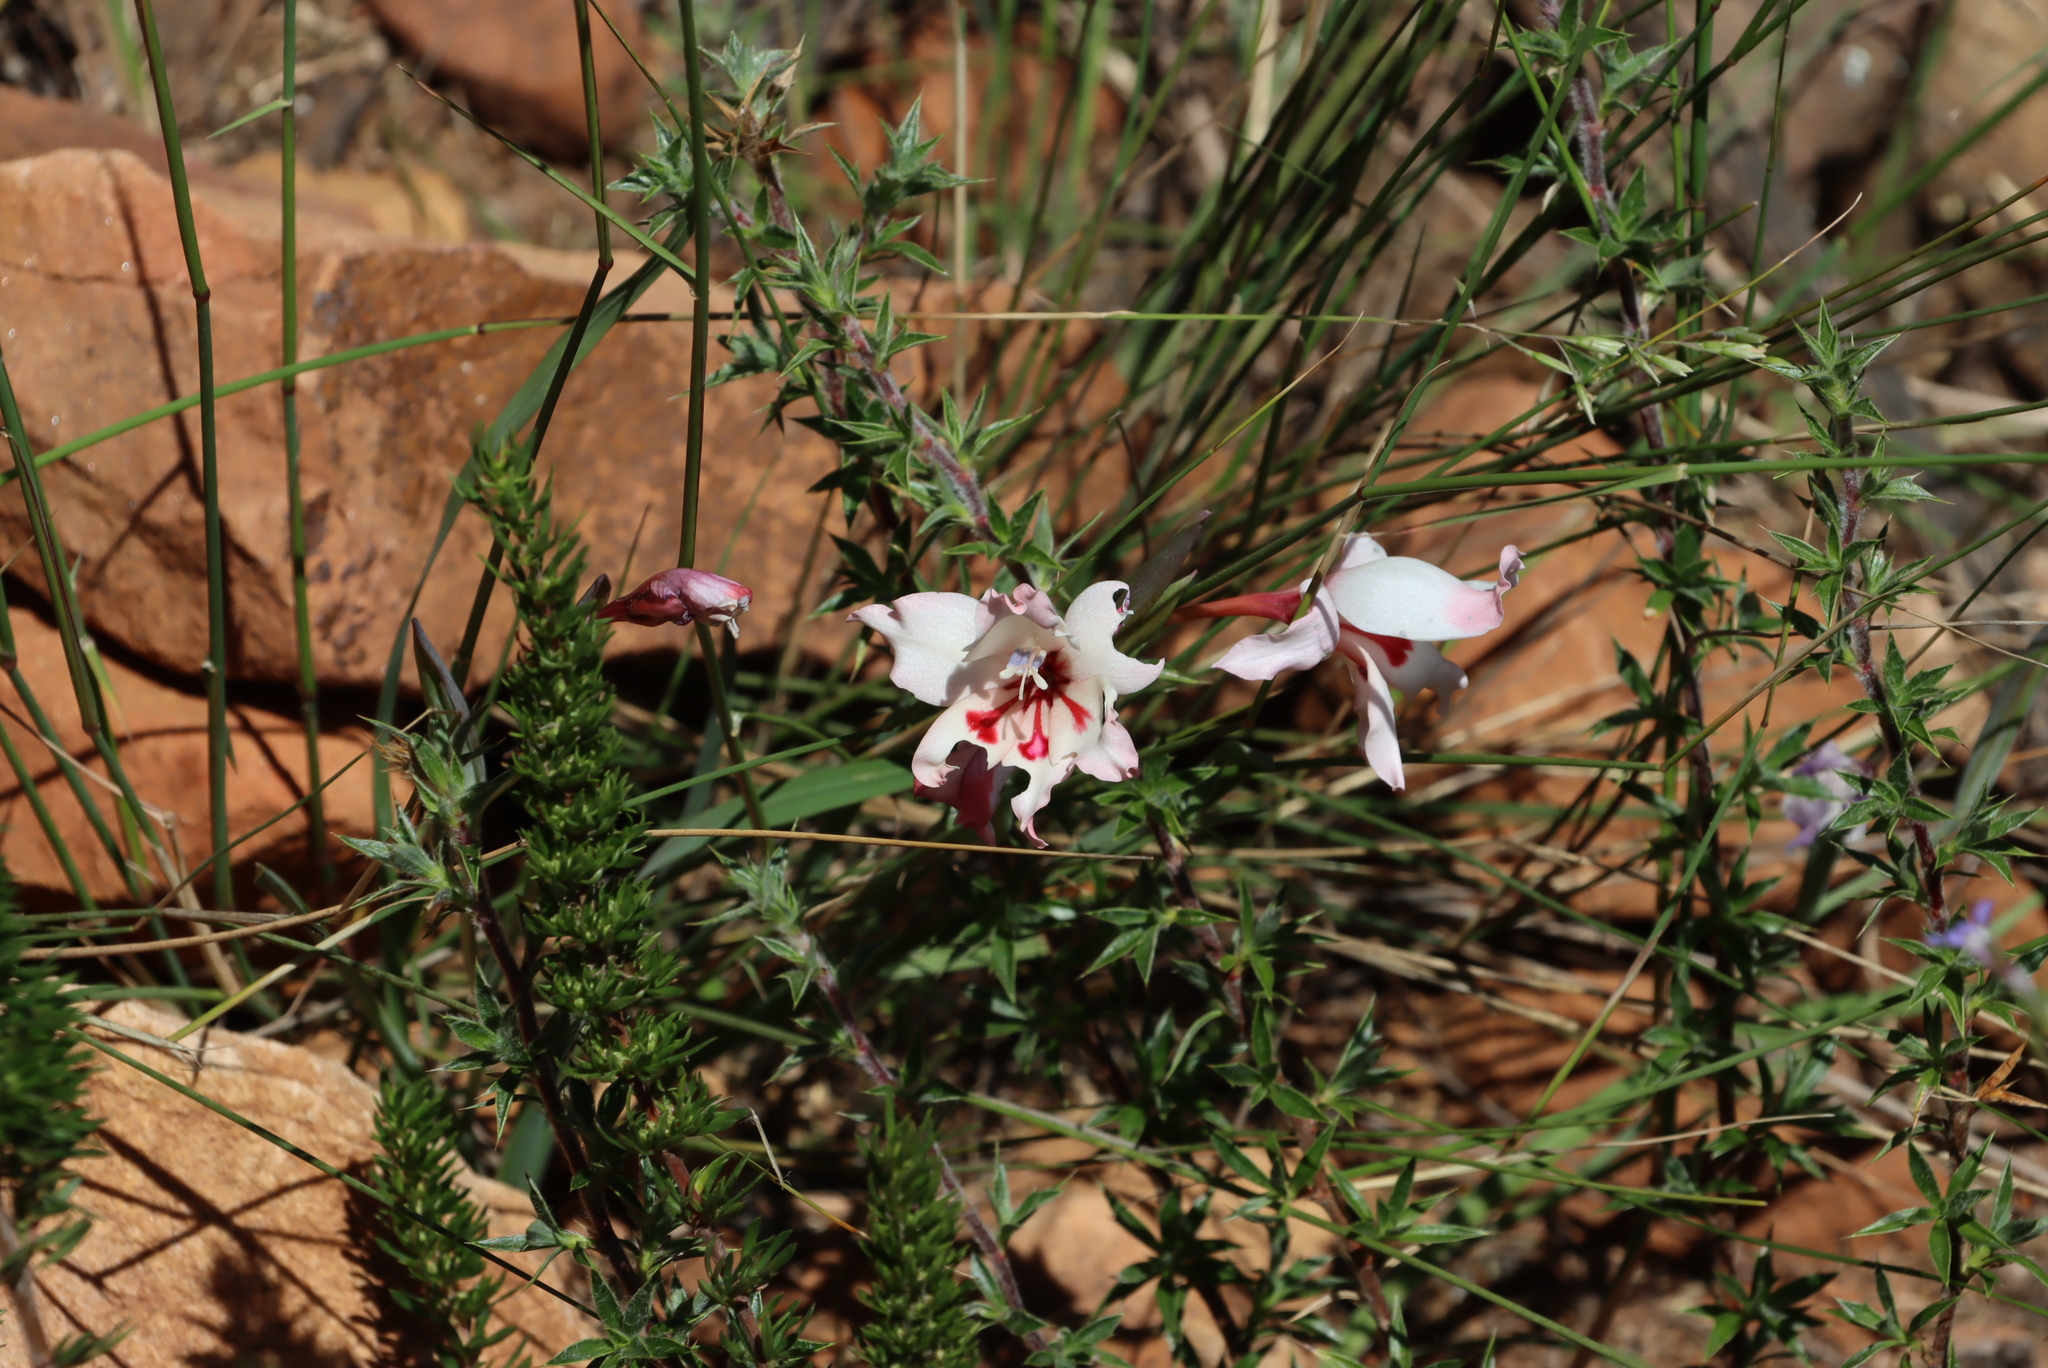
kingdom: Plantae
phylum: Tracheophyta
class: Liliopsida
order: Asparagales
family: Iridaceae
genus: Gladiolus
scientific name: Gladiolus carneus
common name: Painted-lady
